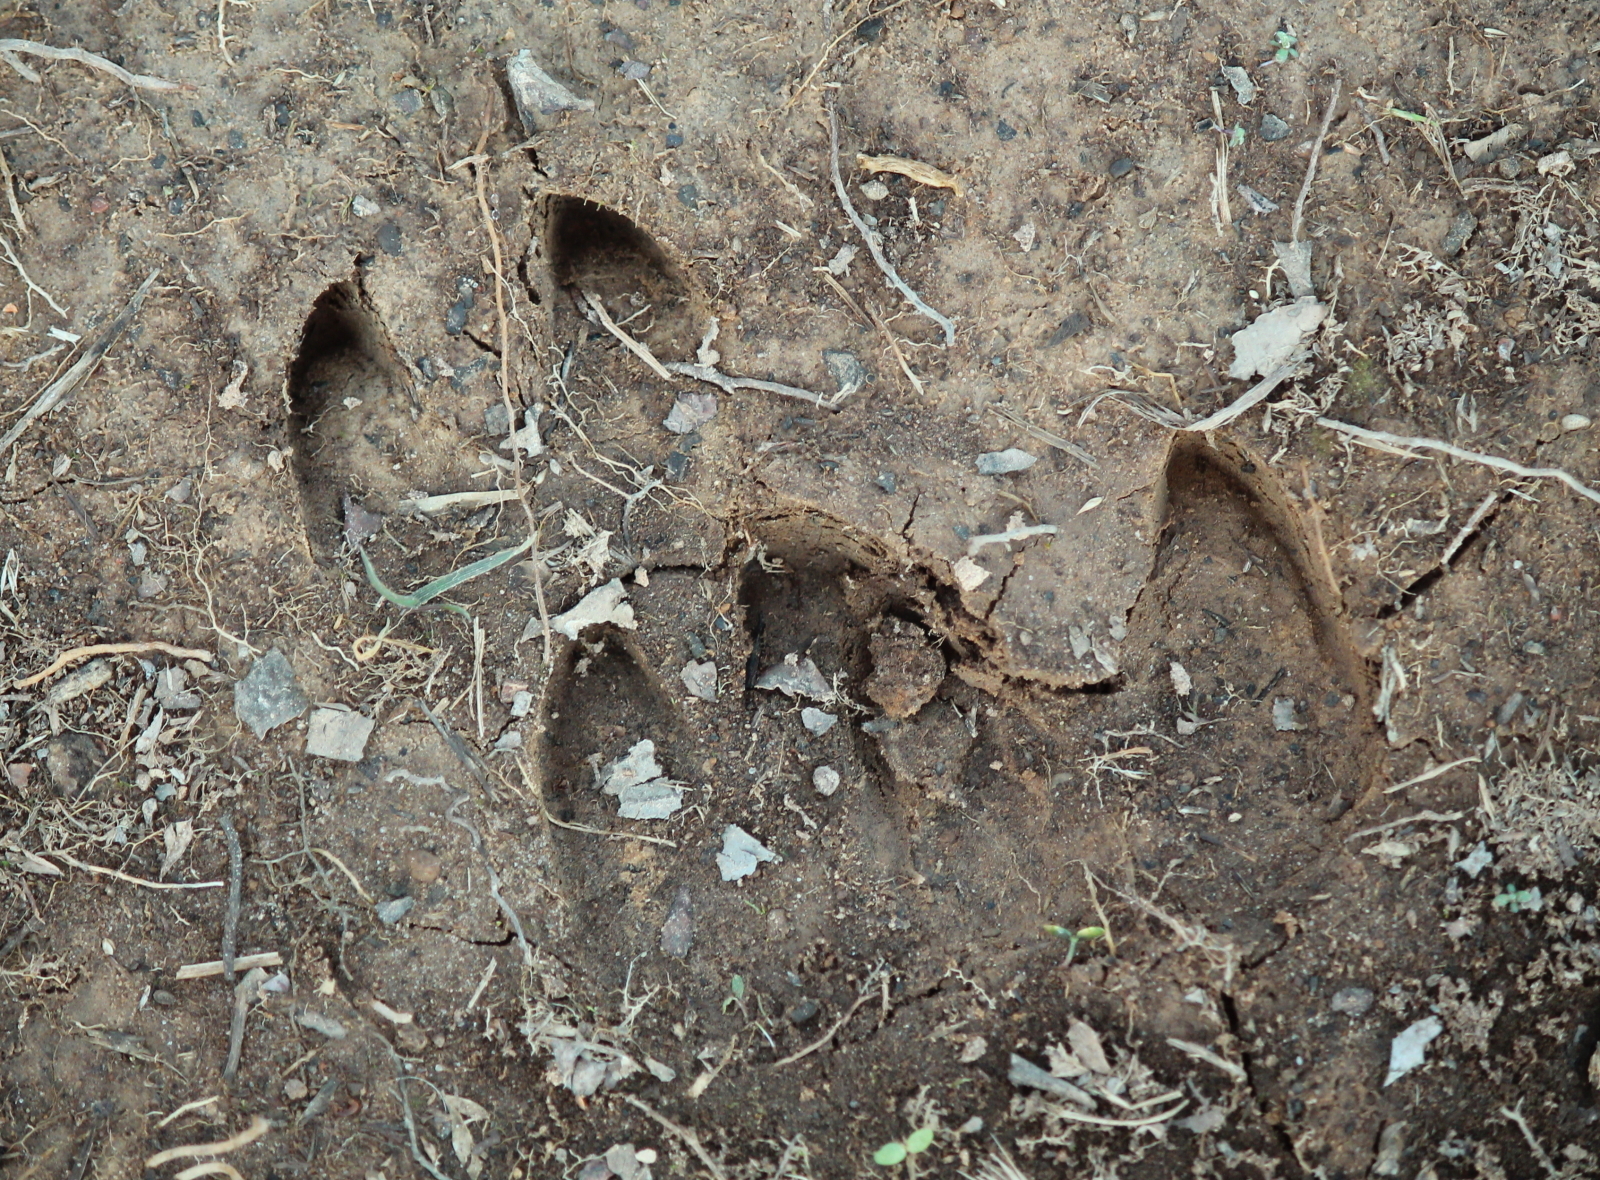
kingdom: Animalia
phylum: Chordata
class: Mammalia
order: Artiodactyla
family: Suidae
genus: Sus
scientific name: Sus scrofa
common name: Wild boar
